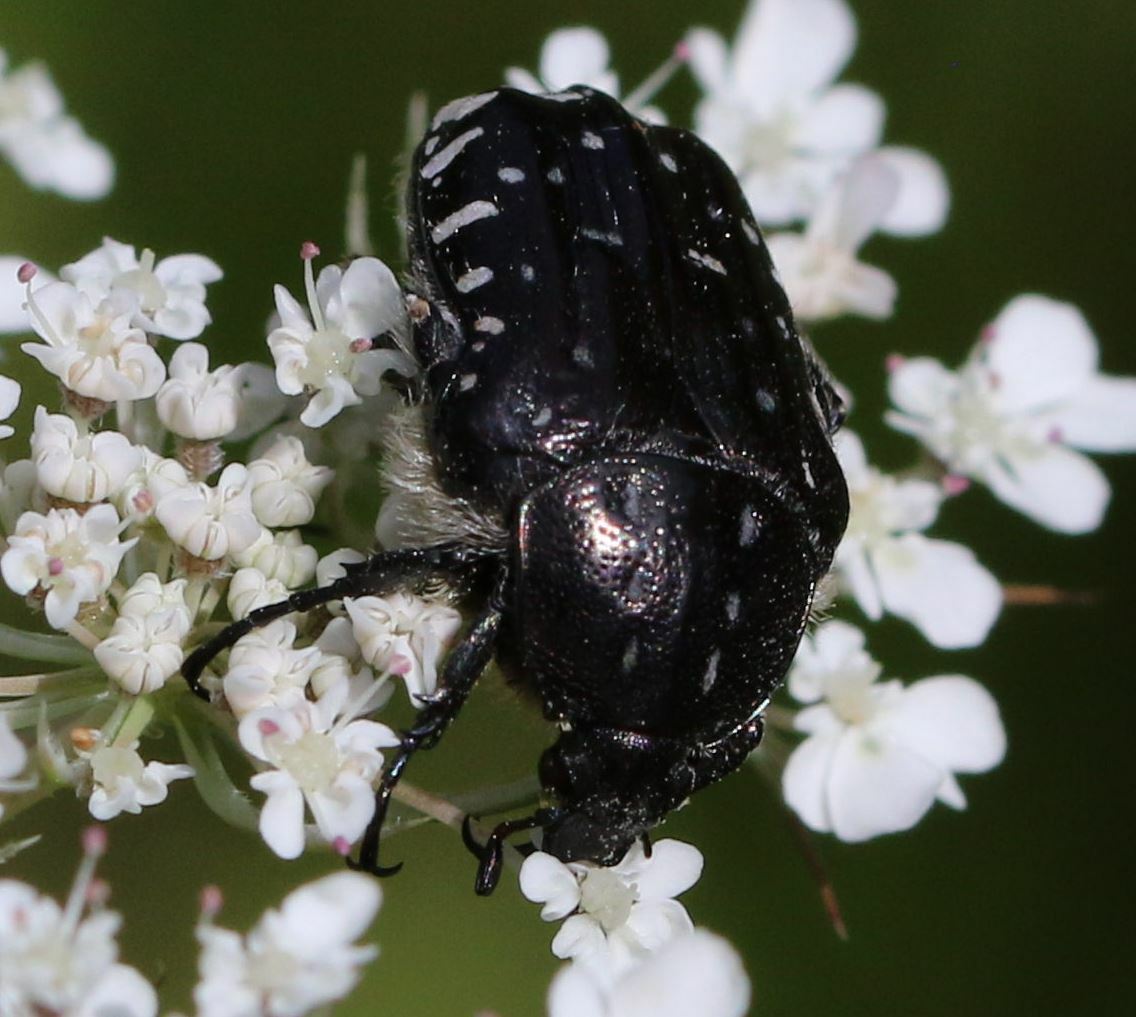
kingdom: Animalia
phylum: Arthropoda
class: Insecta
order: Coleoptera
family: Scarabaeidae
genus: Oxythyrea
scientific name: Oxythyrea funesta
